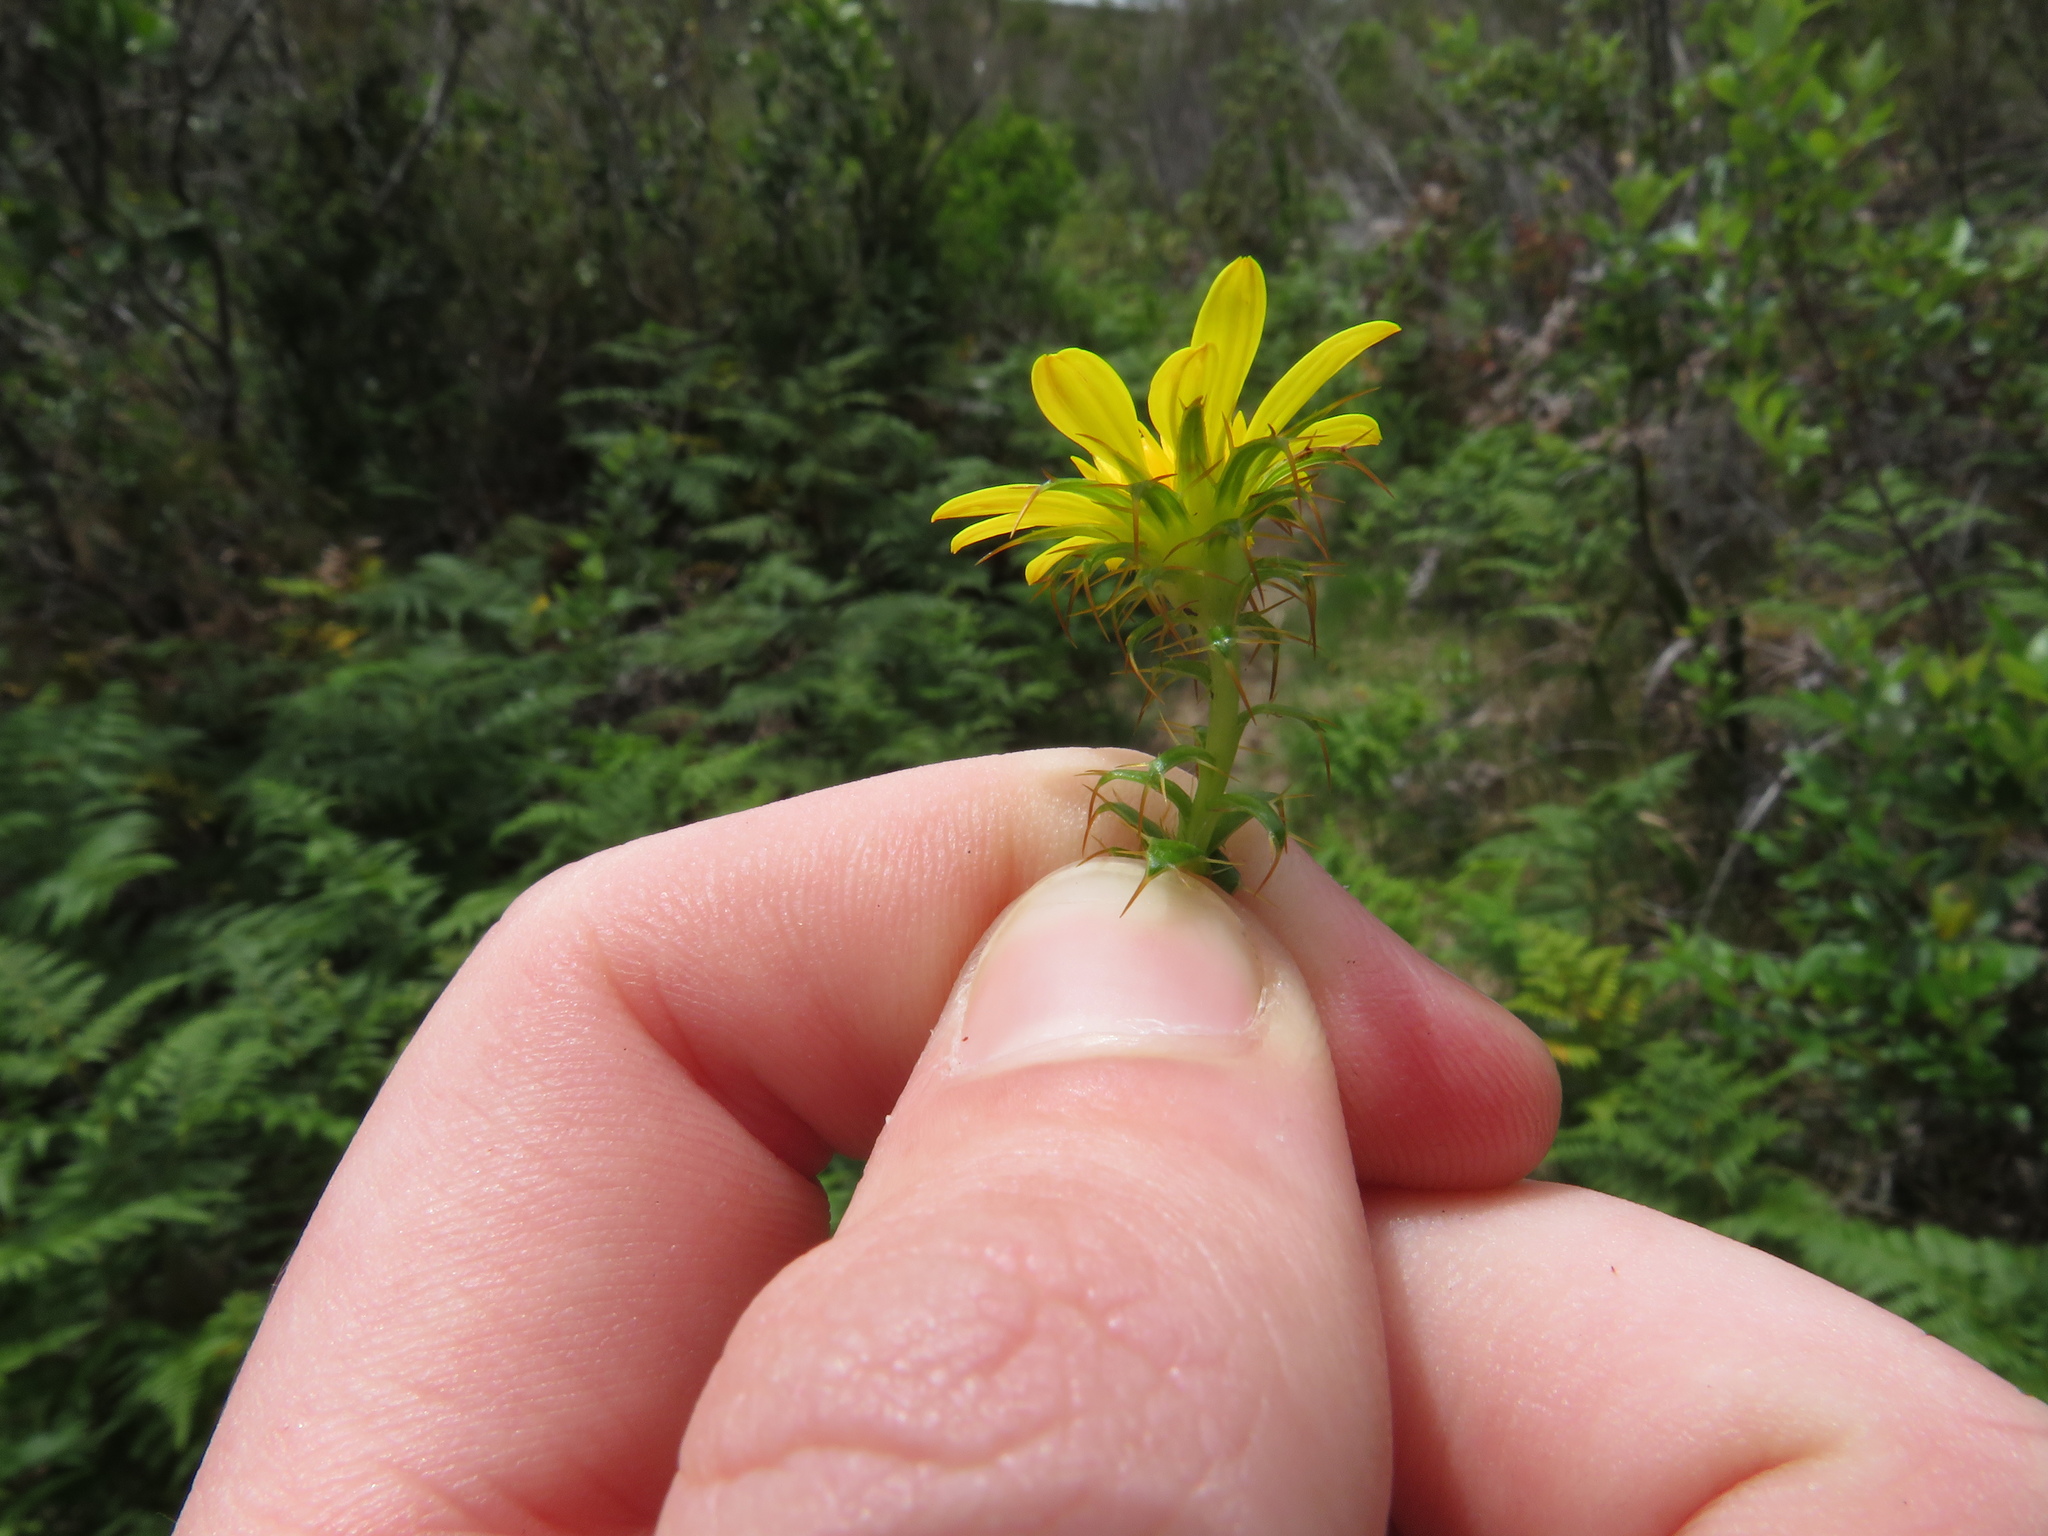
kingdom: Plantae
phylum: Tracheophyta
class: Magnoliopsida
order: Asterales
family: Asteraceae
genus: Cullumia
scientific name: Cullumia setosa
